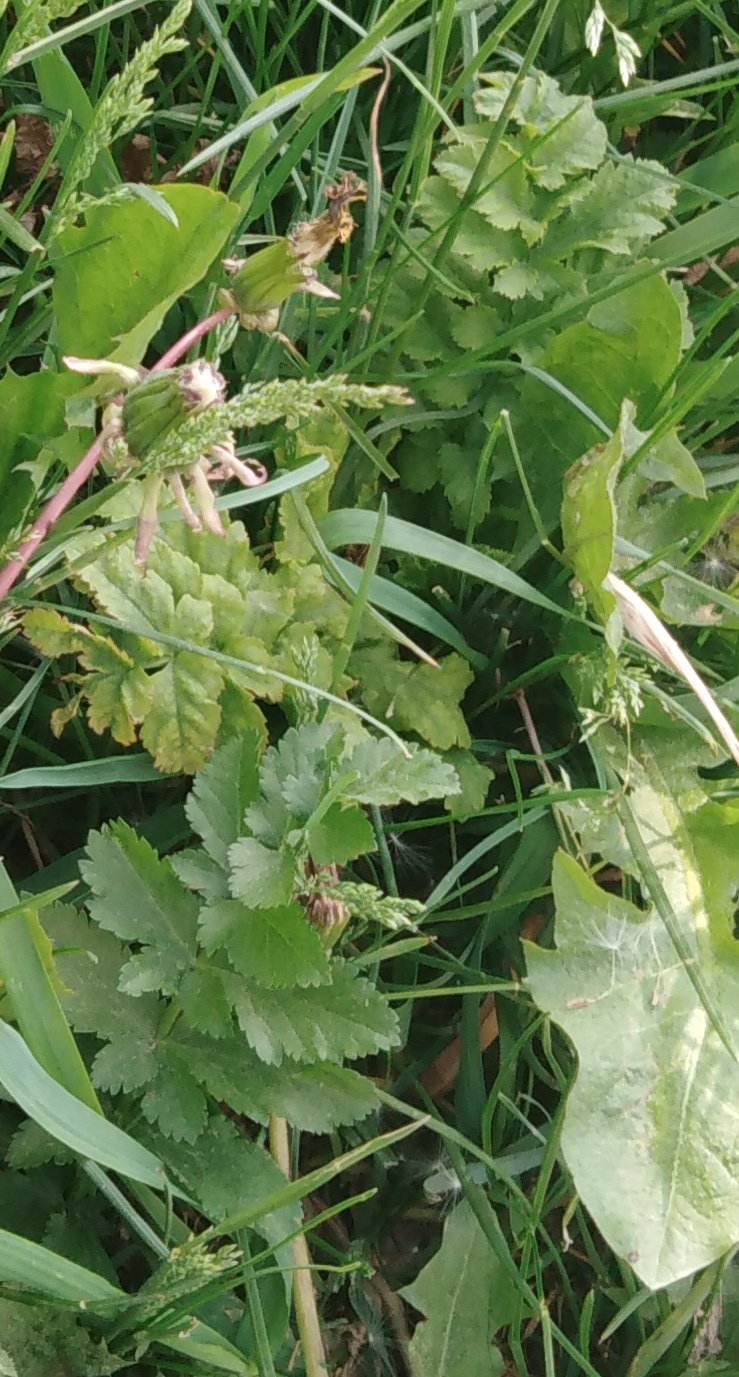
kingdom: Plantae
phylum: Tracheophyta
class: Magnoliopsida
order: Apiales
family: Apiaceae
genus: Pastinaca
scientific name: Pastinaca sativa
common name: Wild parsnip
